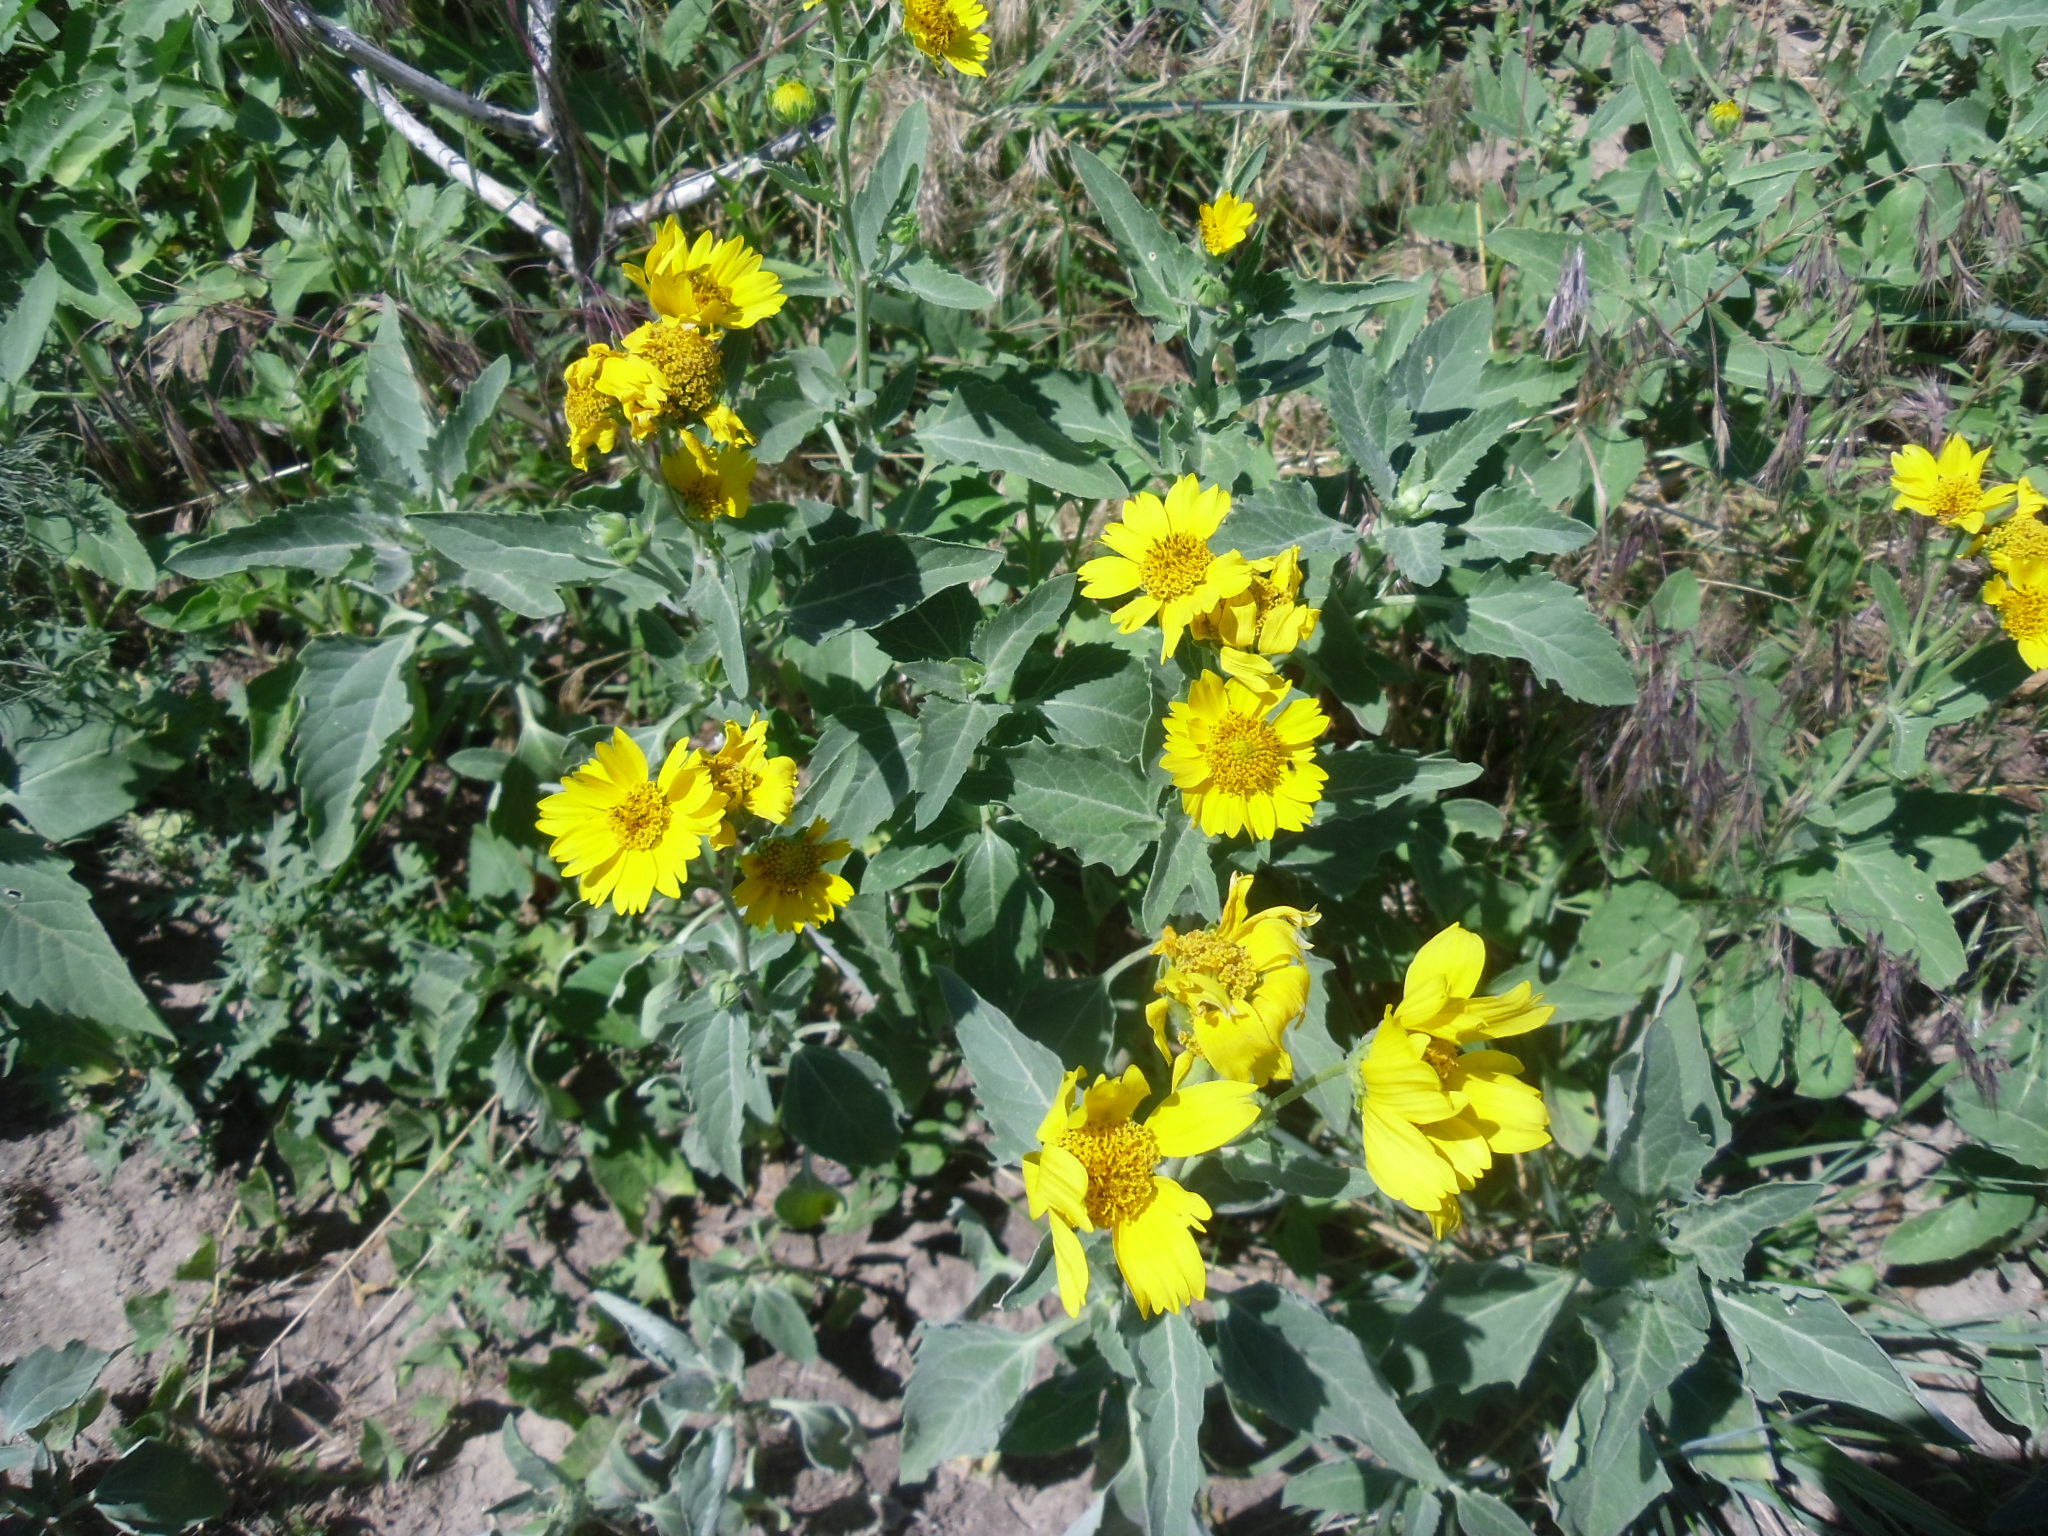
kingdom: Plantae
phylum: Tracheophyta
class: Magnoliopsida
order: Asterales
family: Asteraceae
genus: Verbesina
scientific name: Verbesina encelioides
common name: Golden crownbeard
